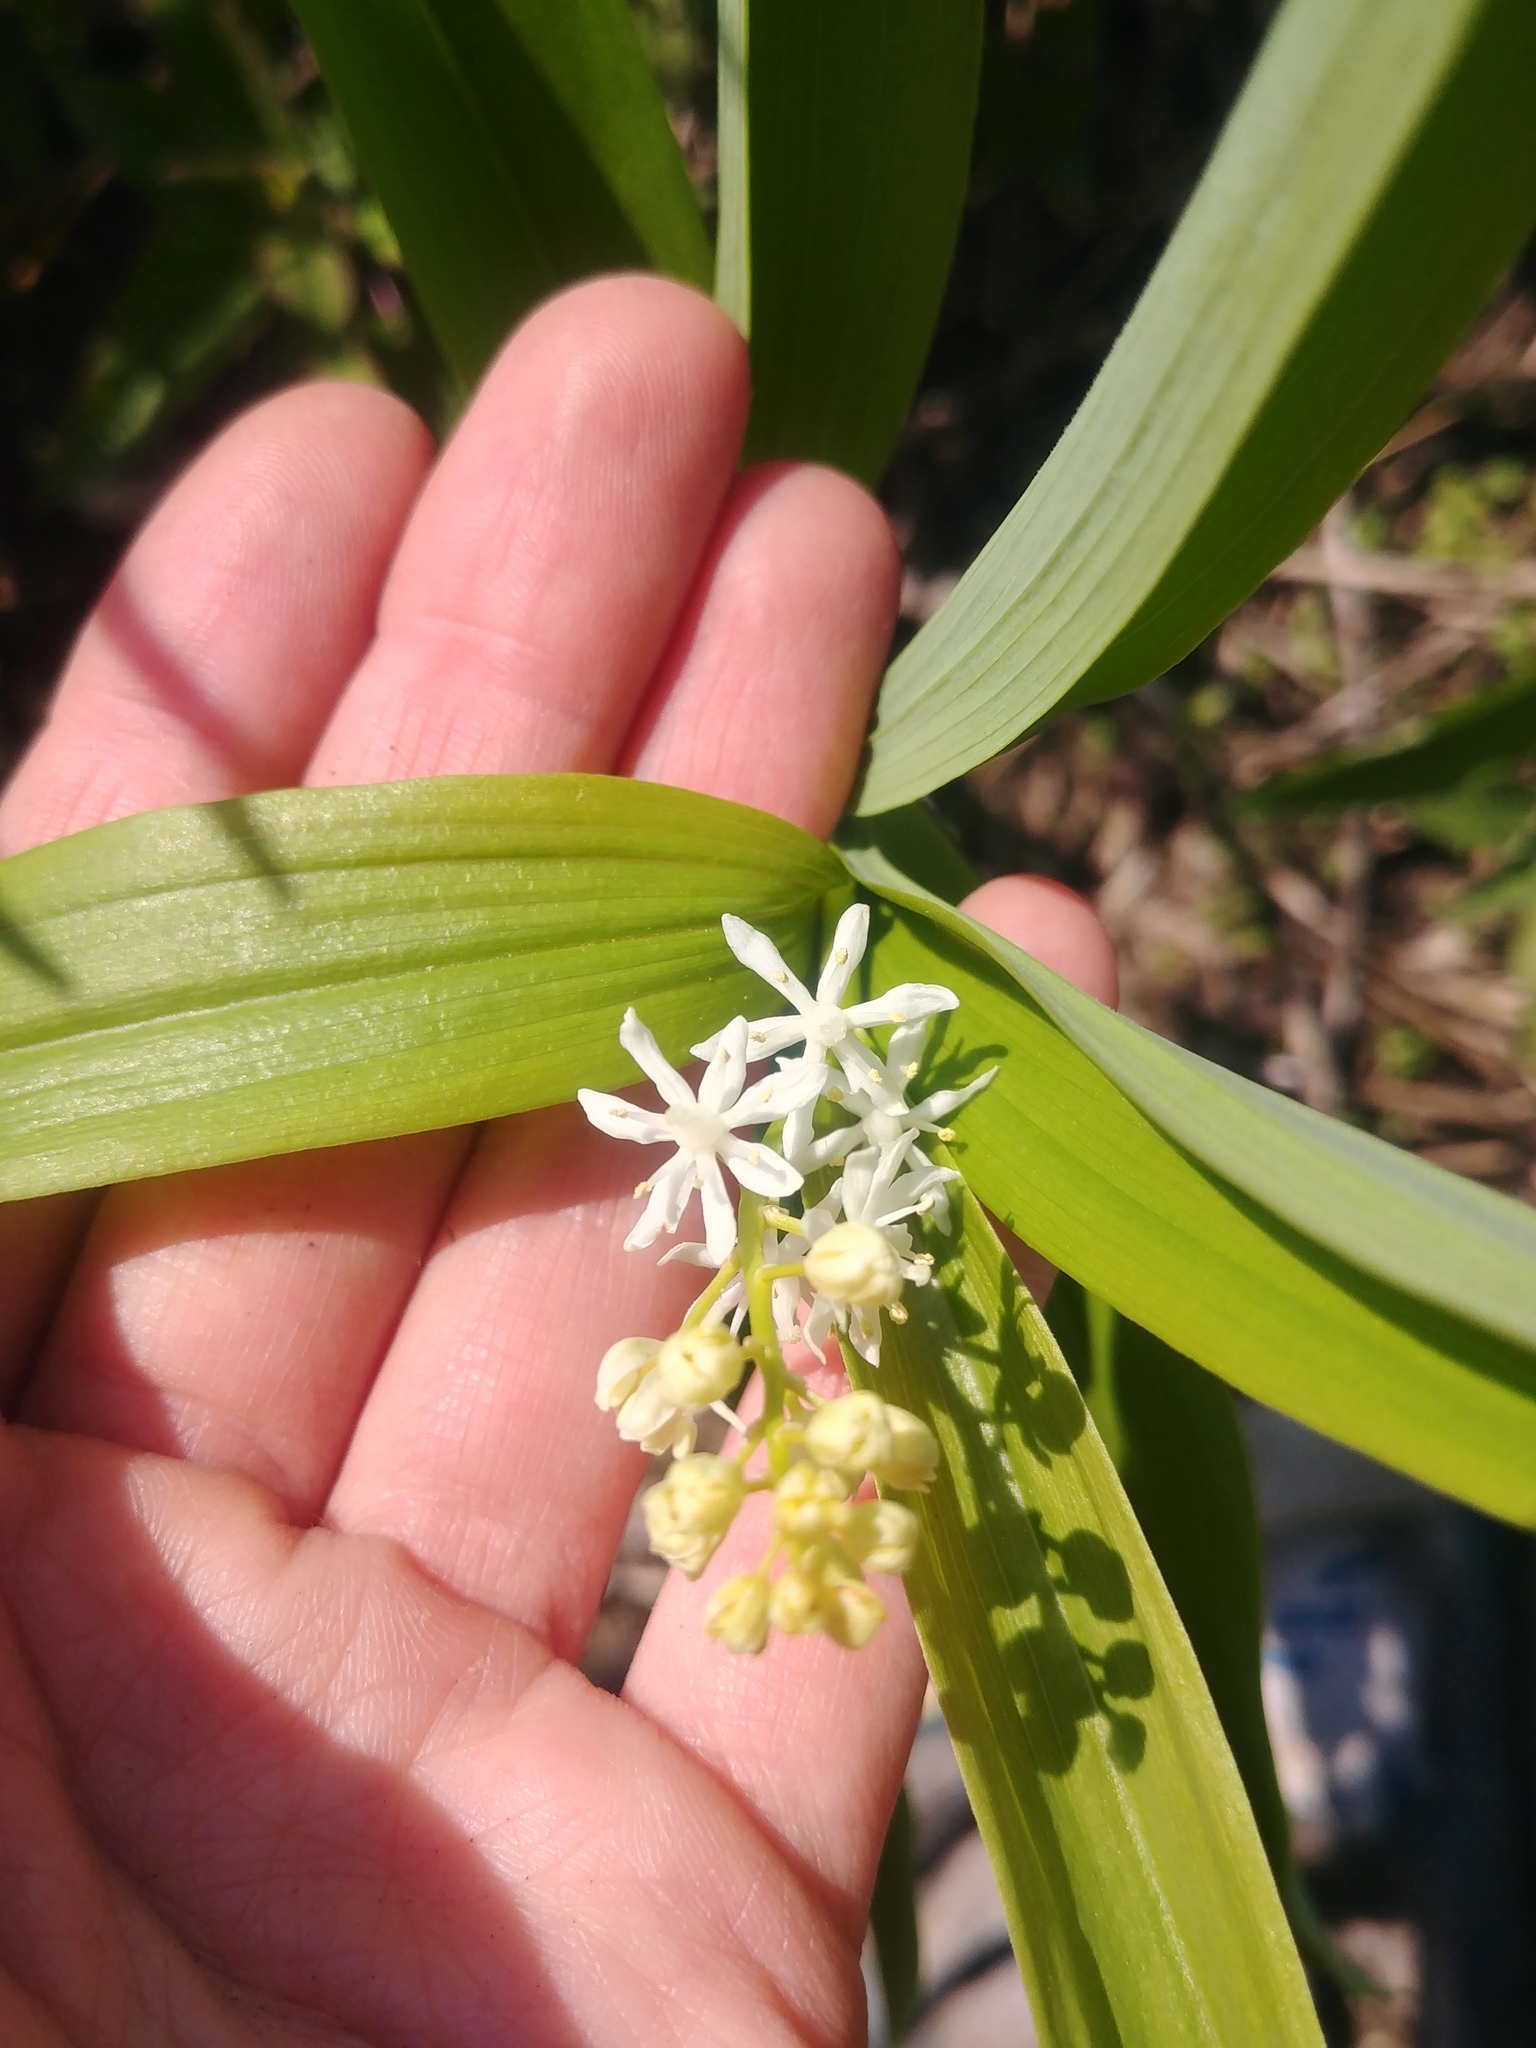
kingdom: Plantae
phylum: Tracheophyta
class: Liliopsida
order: Asparagales
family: Asparagaceae
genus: Maianthemum
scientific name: Maianthemum stellatum
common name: Little false solomon's seal
